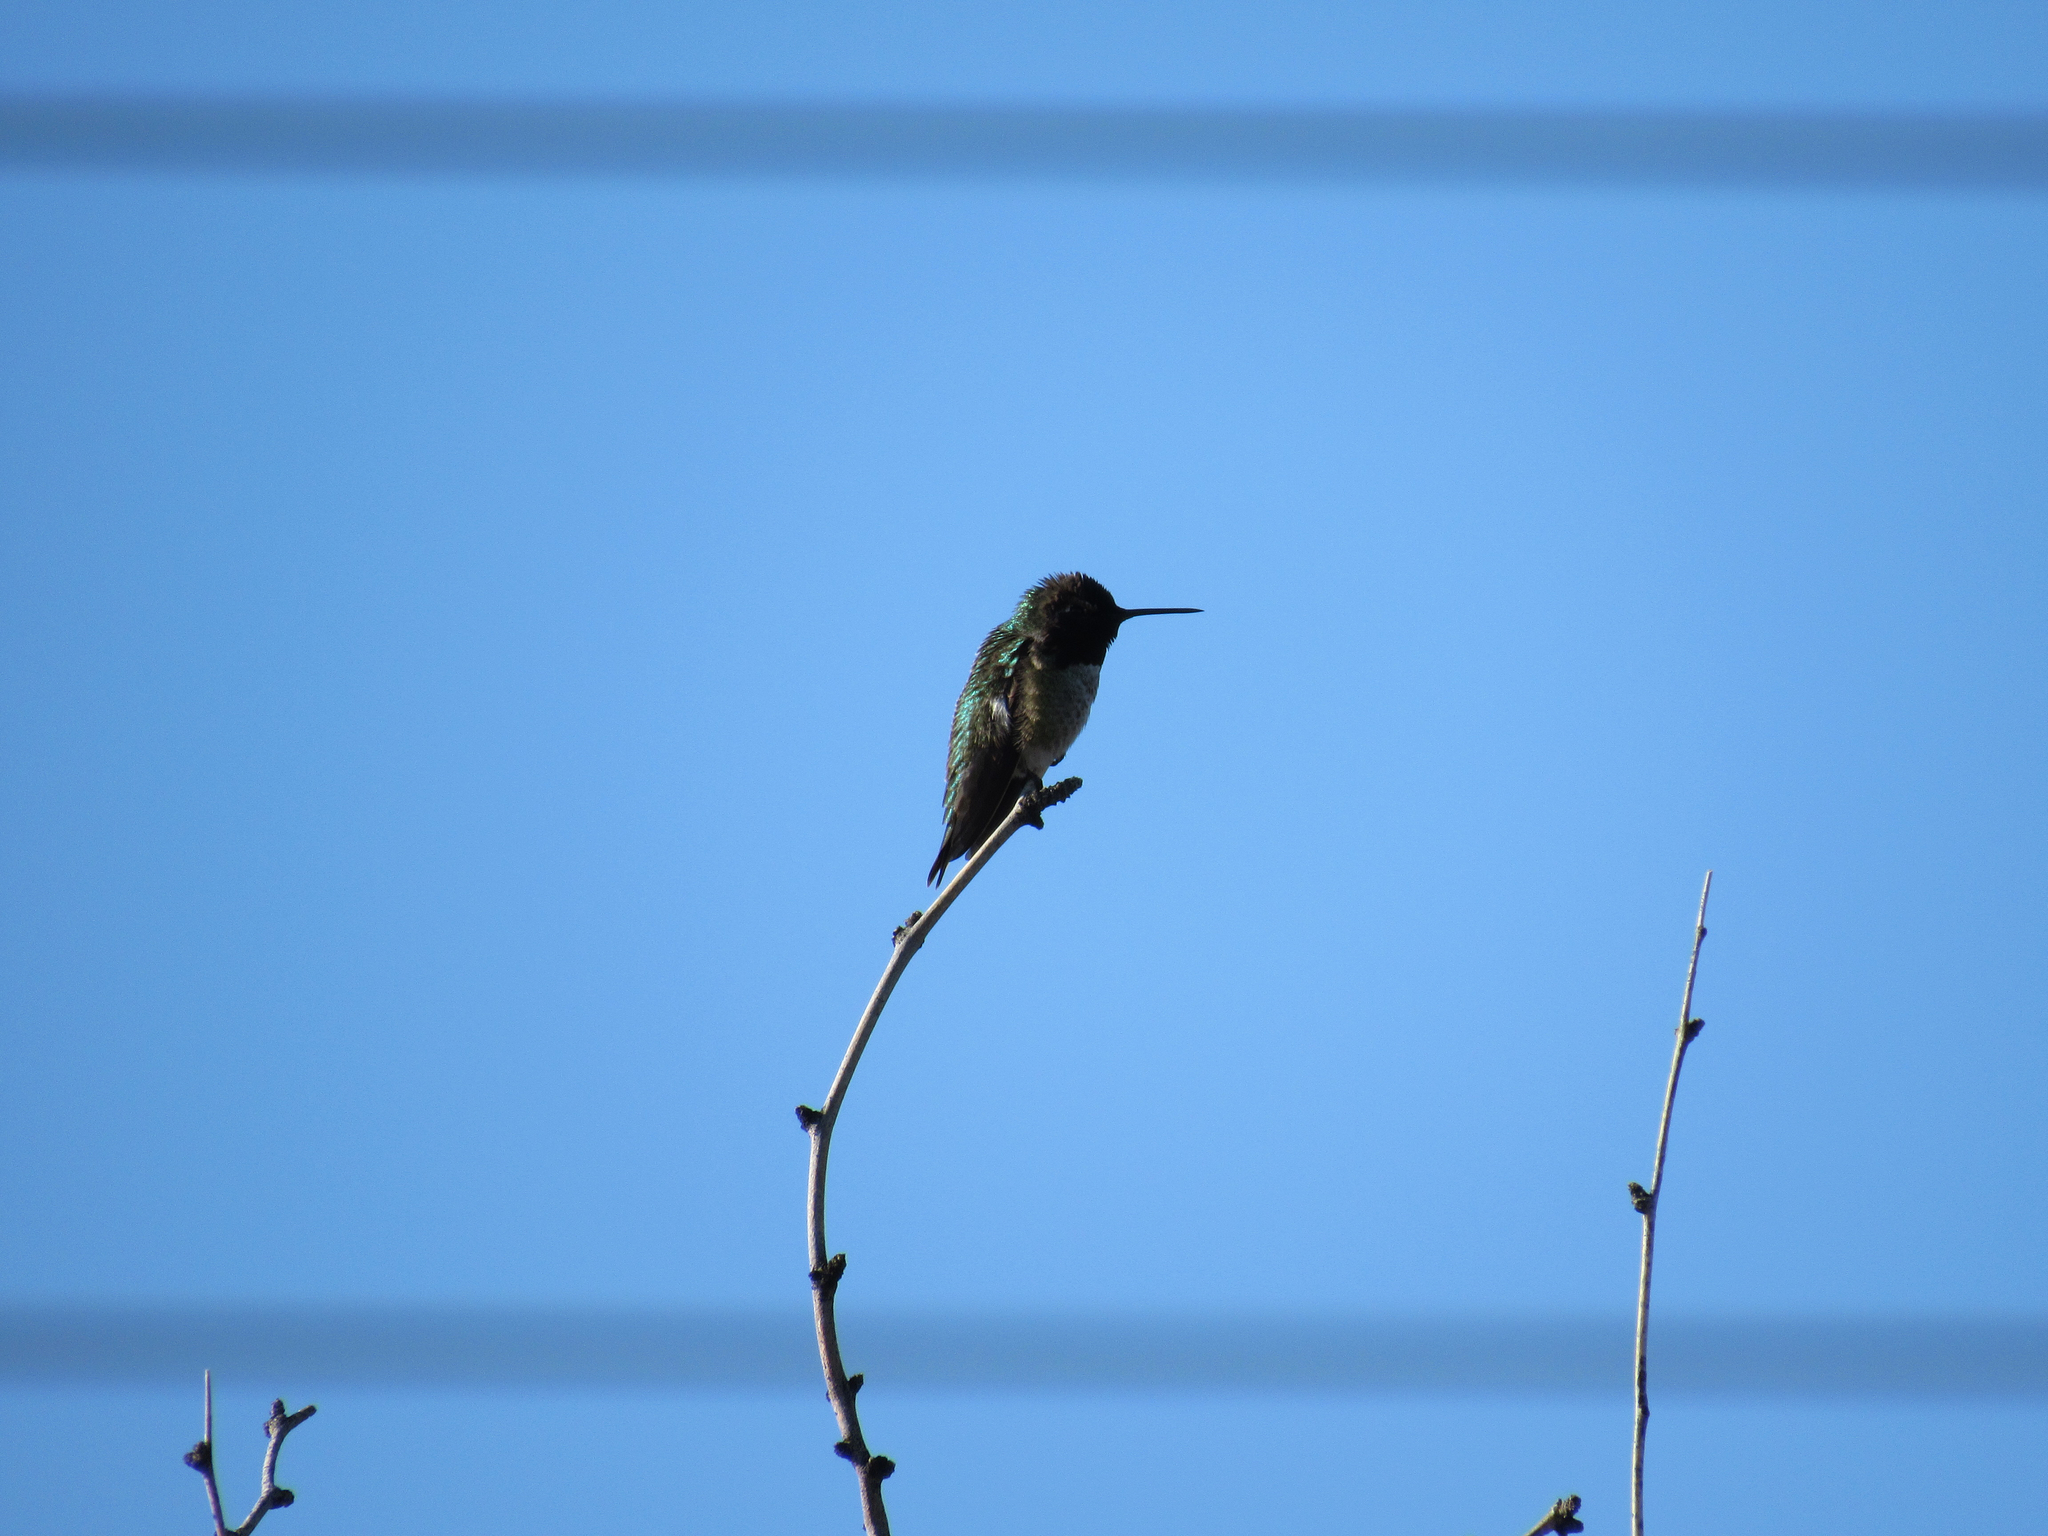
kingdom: Animalia
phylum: Chordata
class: Aves
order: Apodiformes
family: Trochilidae
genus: Calypte
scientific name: Calypte anna
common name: Anna's hummingbird
